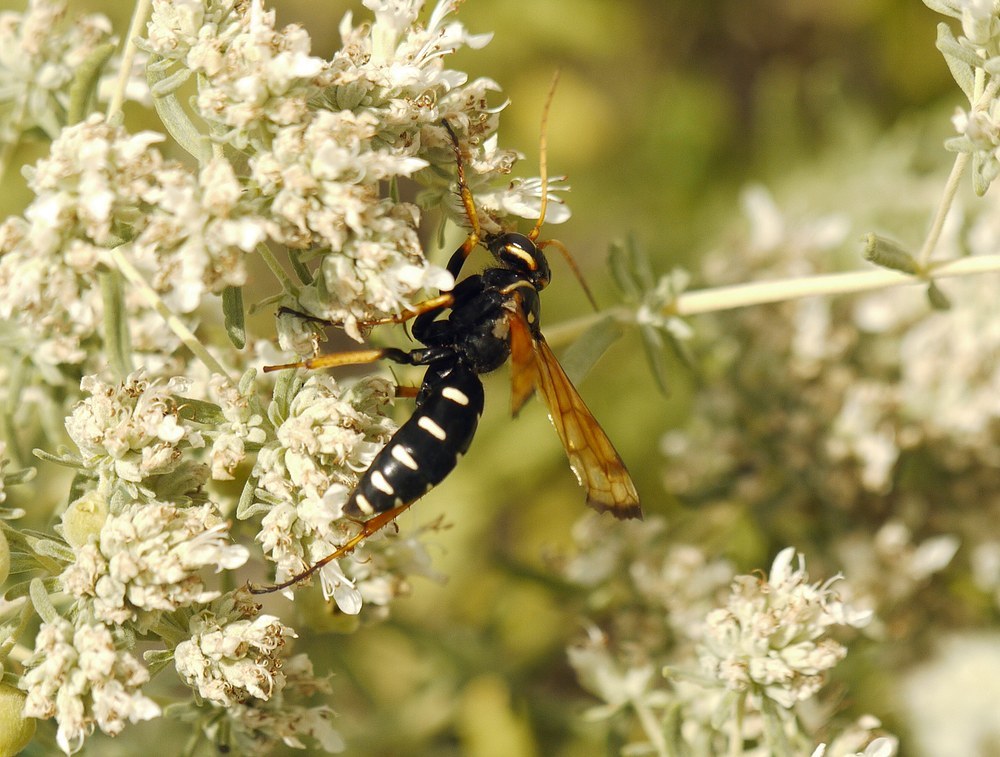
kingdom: Animalia
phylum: Arthropoda
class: Insecta
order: Hymenoptera
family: Pompilidae
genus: Parabatozonus
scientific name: Parabatozonus lacerticida
